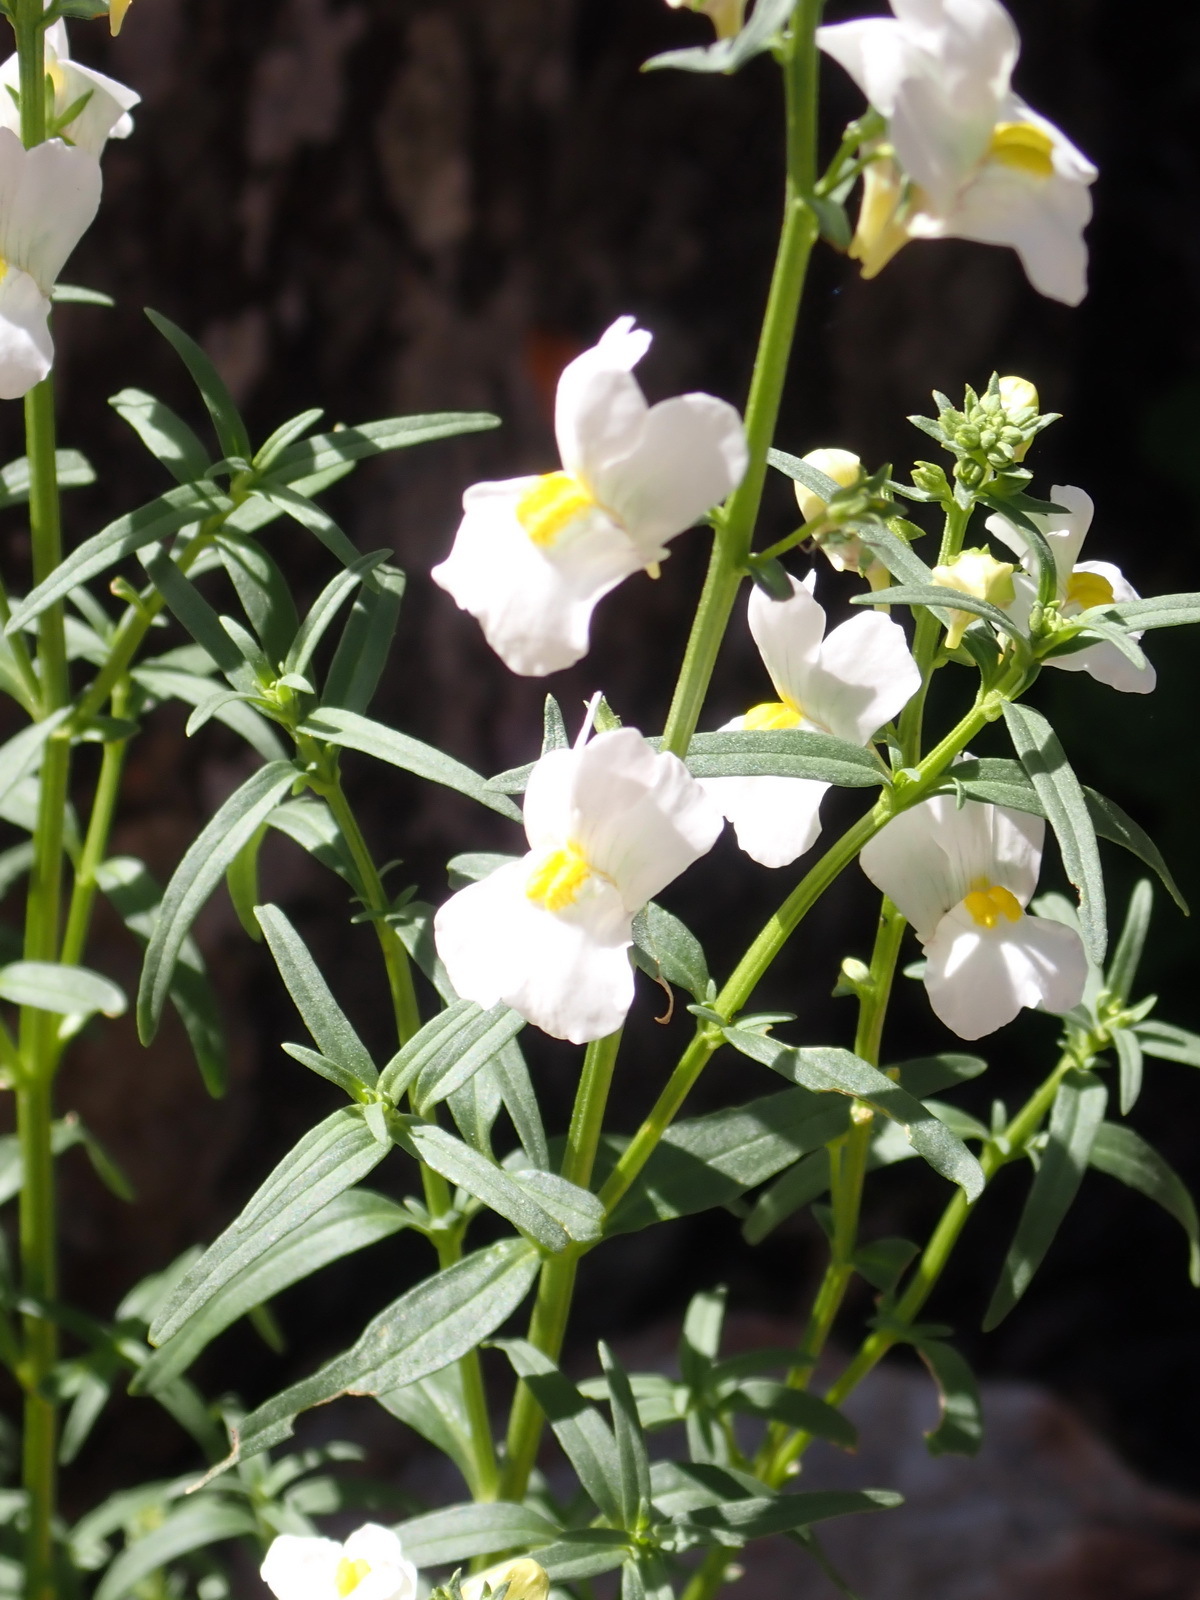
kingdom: Plantae
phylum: Tracheophyta
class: Magnoliopsida
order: Lamiales
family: Scrophulariaceae
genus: Nemesia
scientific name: Nemesia fruticans
